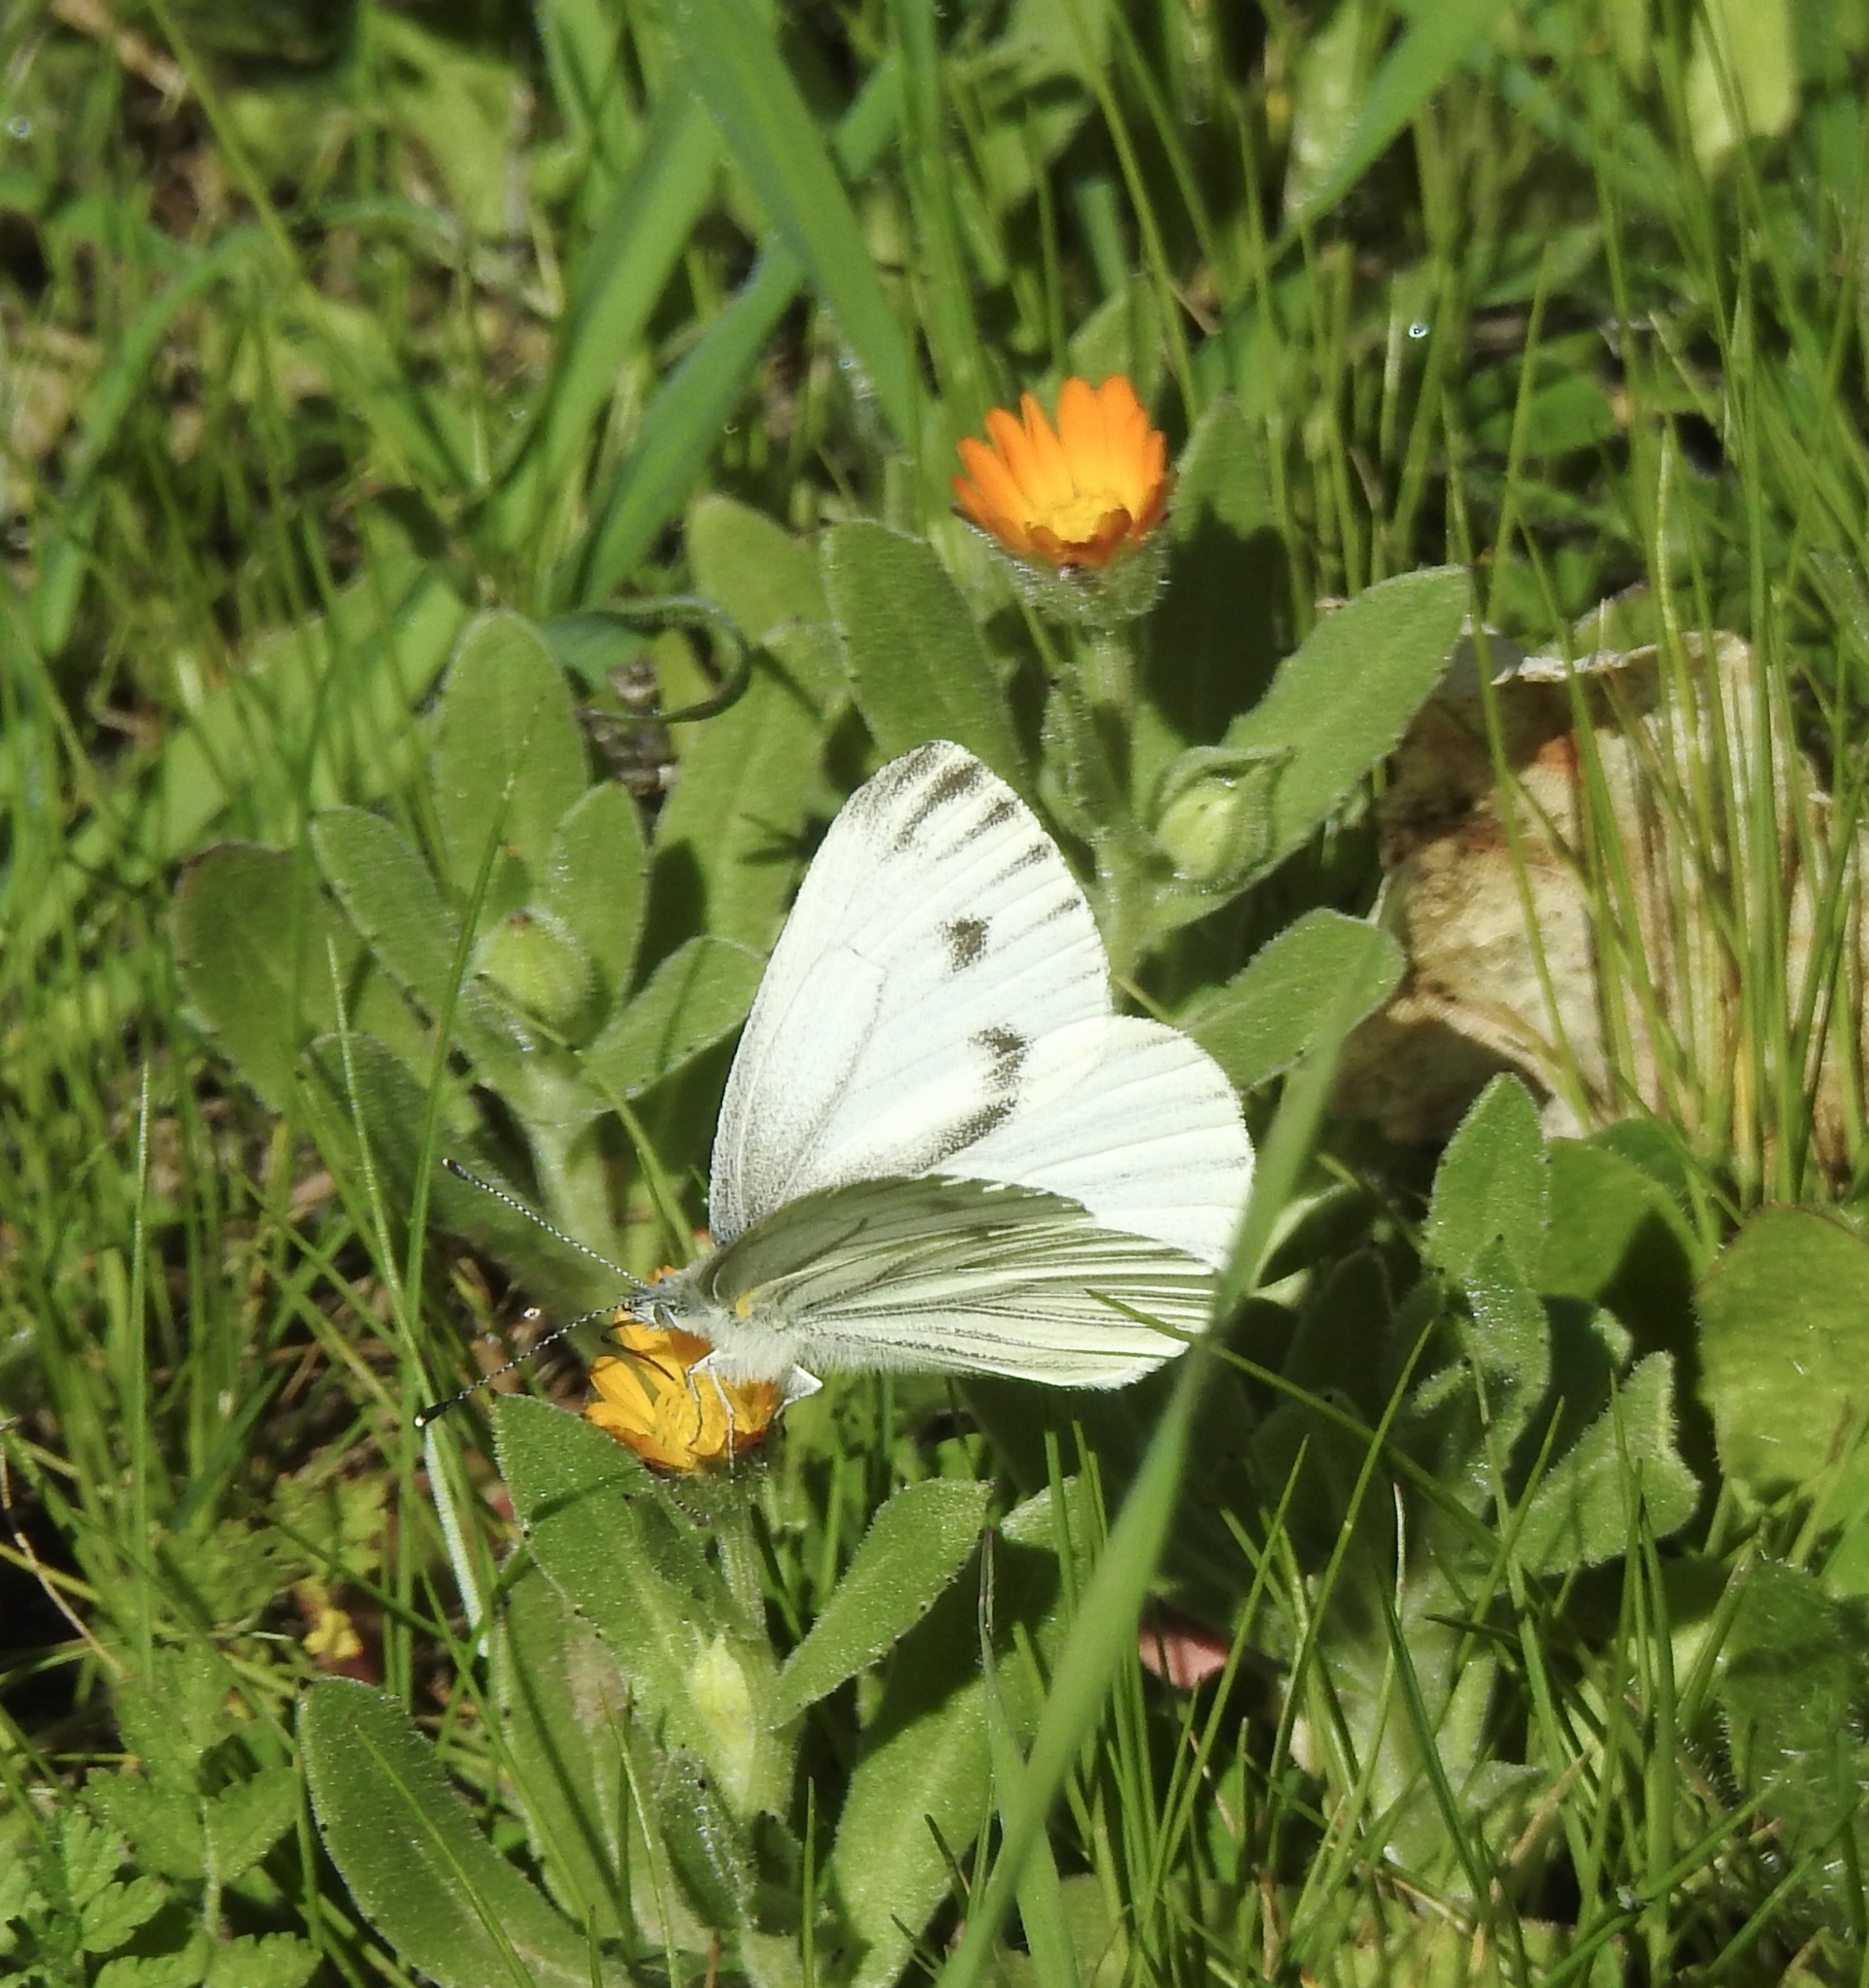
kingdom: Animalia
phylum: Arthropoda
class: Insecta
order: Lepidoptera
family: Pieridae
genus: Pieris
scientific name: Pieris marginalis
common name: Margined white
